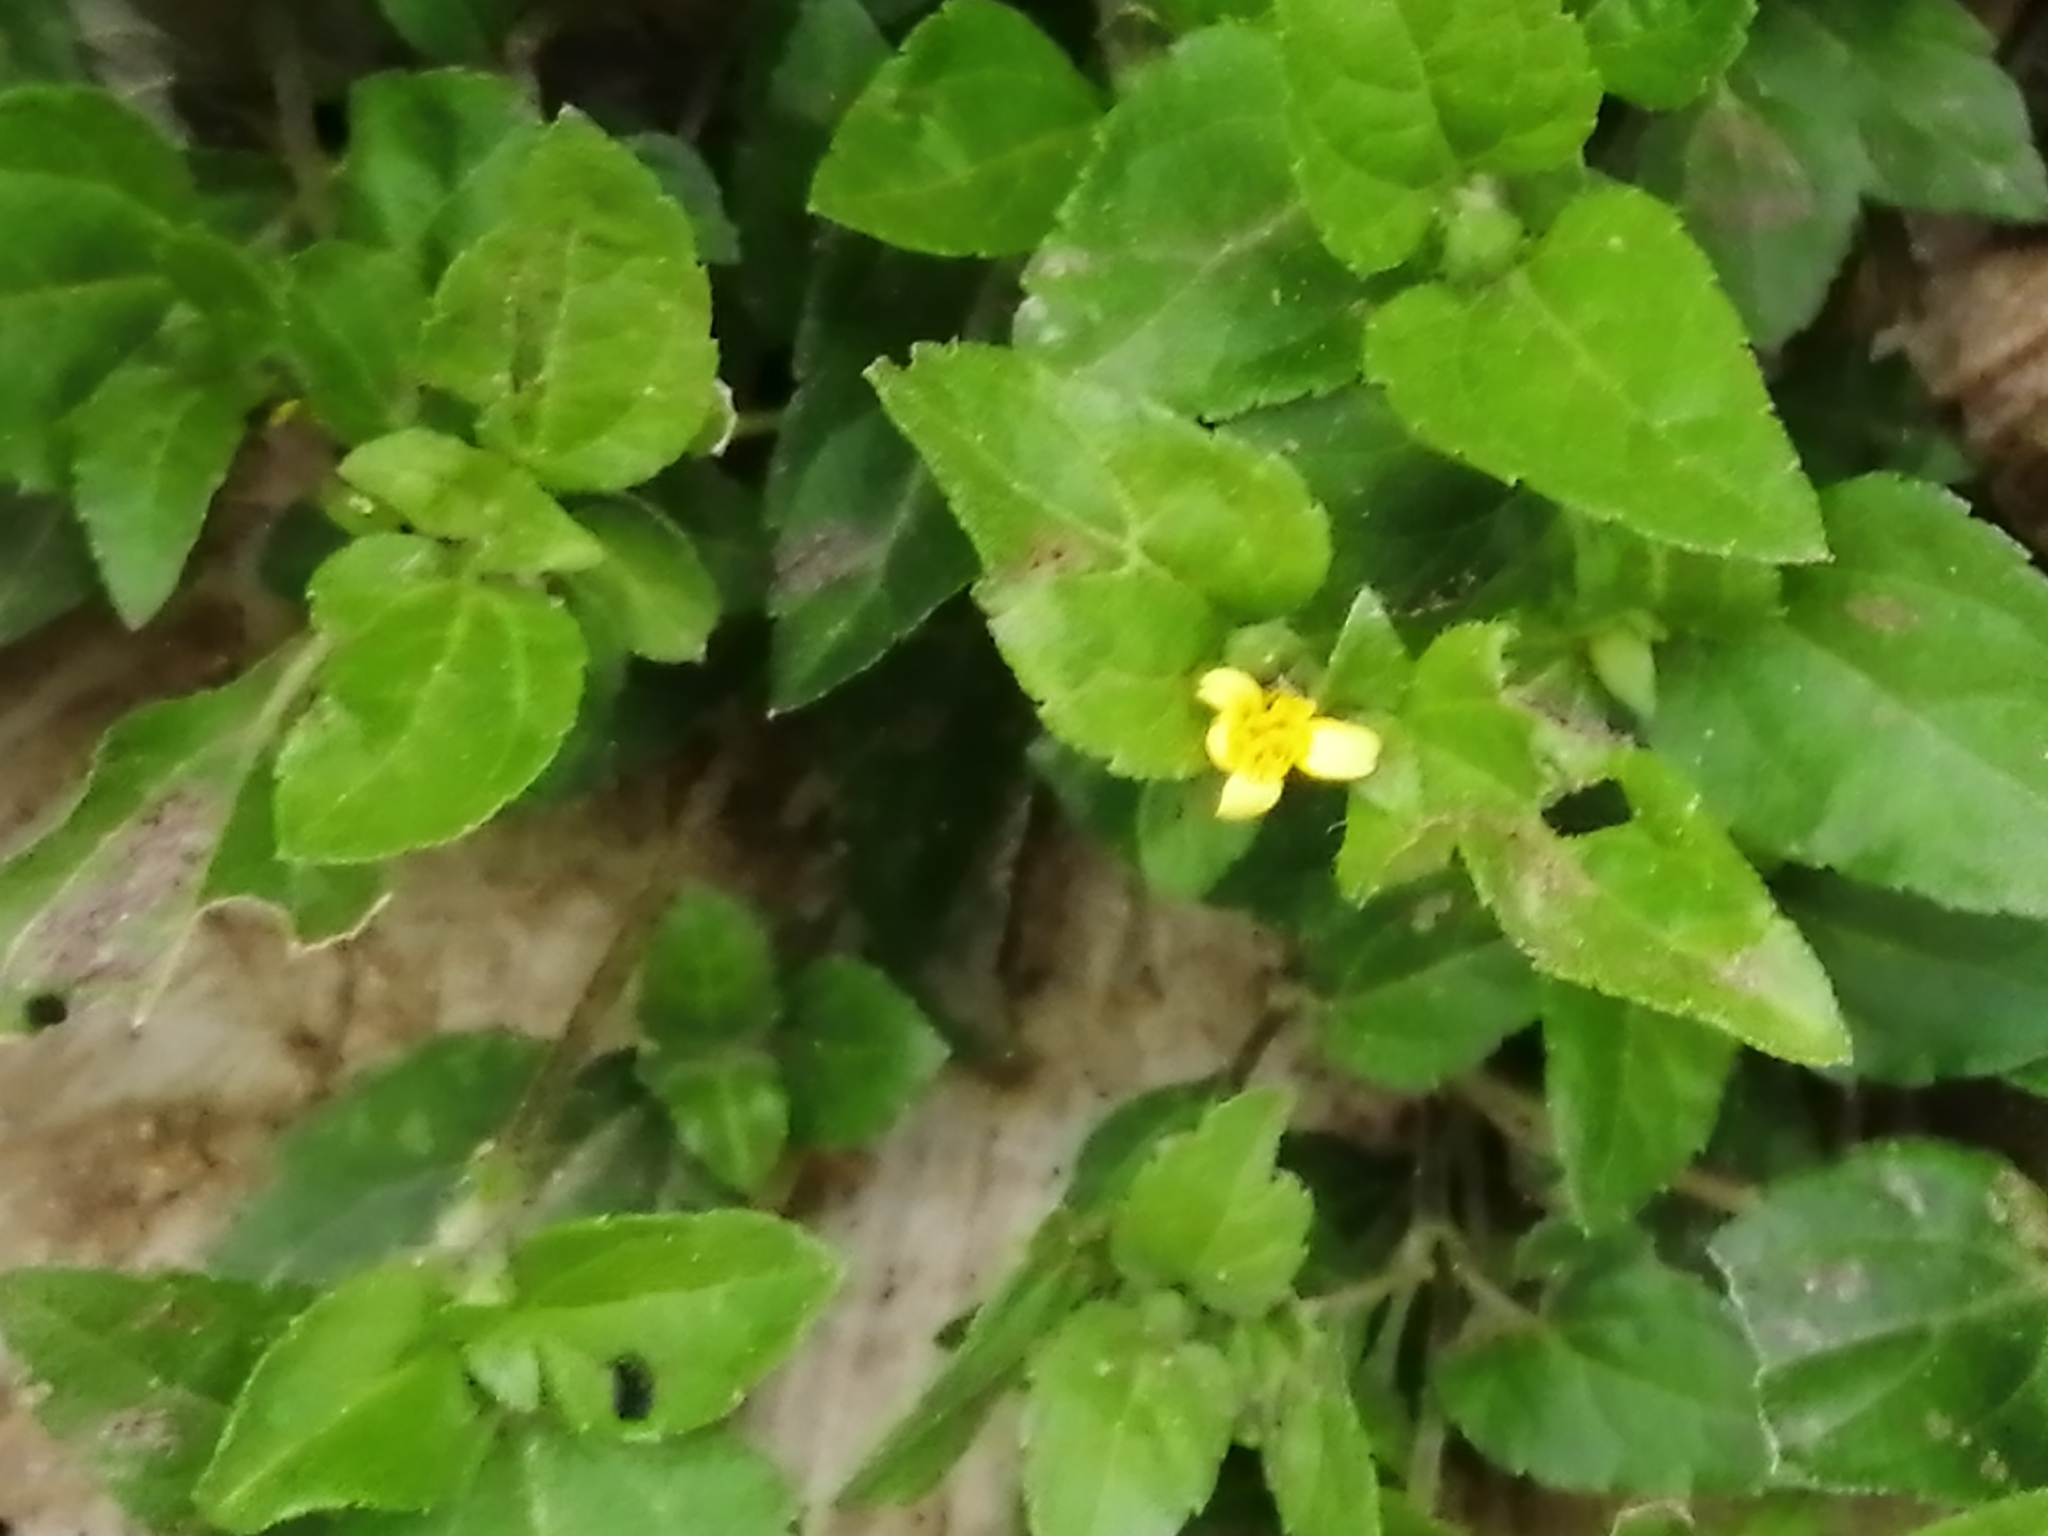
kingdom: Plantae
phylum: Tracheophyta
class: Magnoliopsida
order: Asterales
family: Asteraceae
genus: Calyptocarpus
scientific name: Calyptocarpus vialis
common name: Straggler daisy
